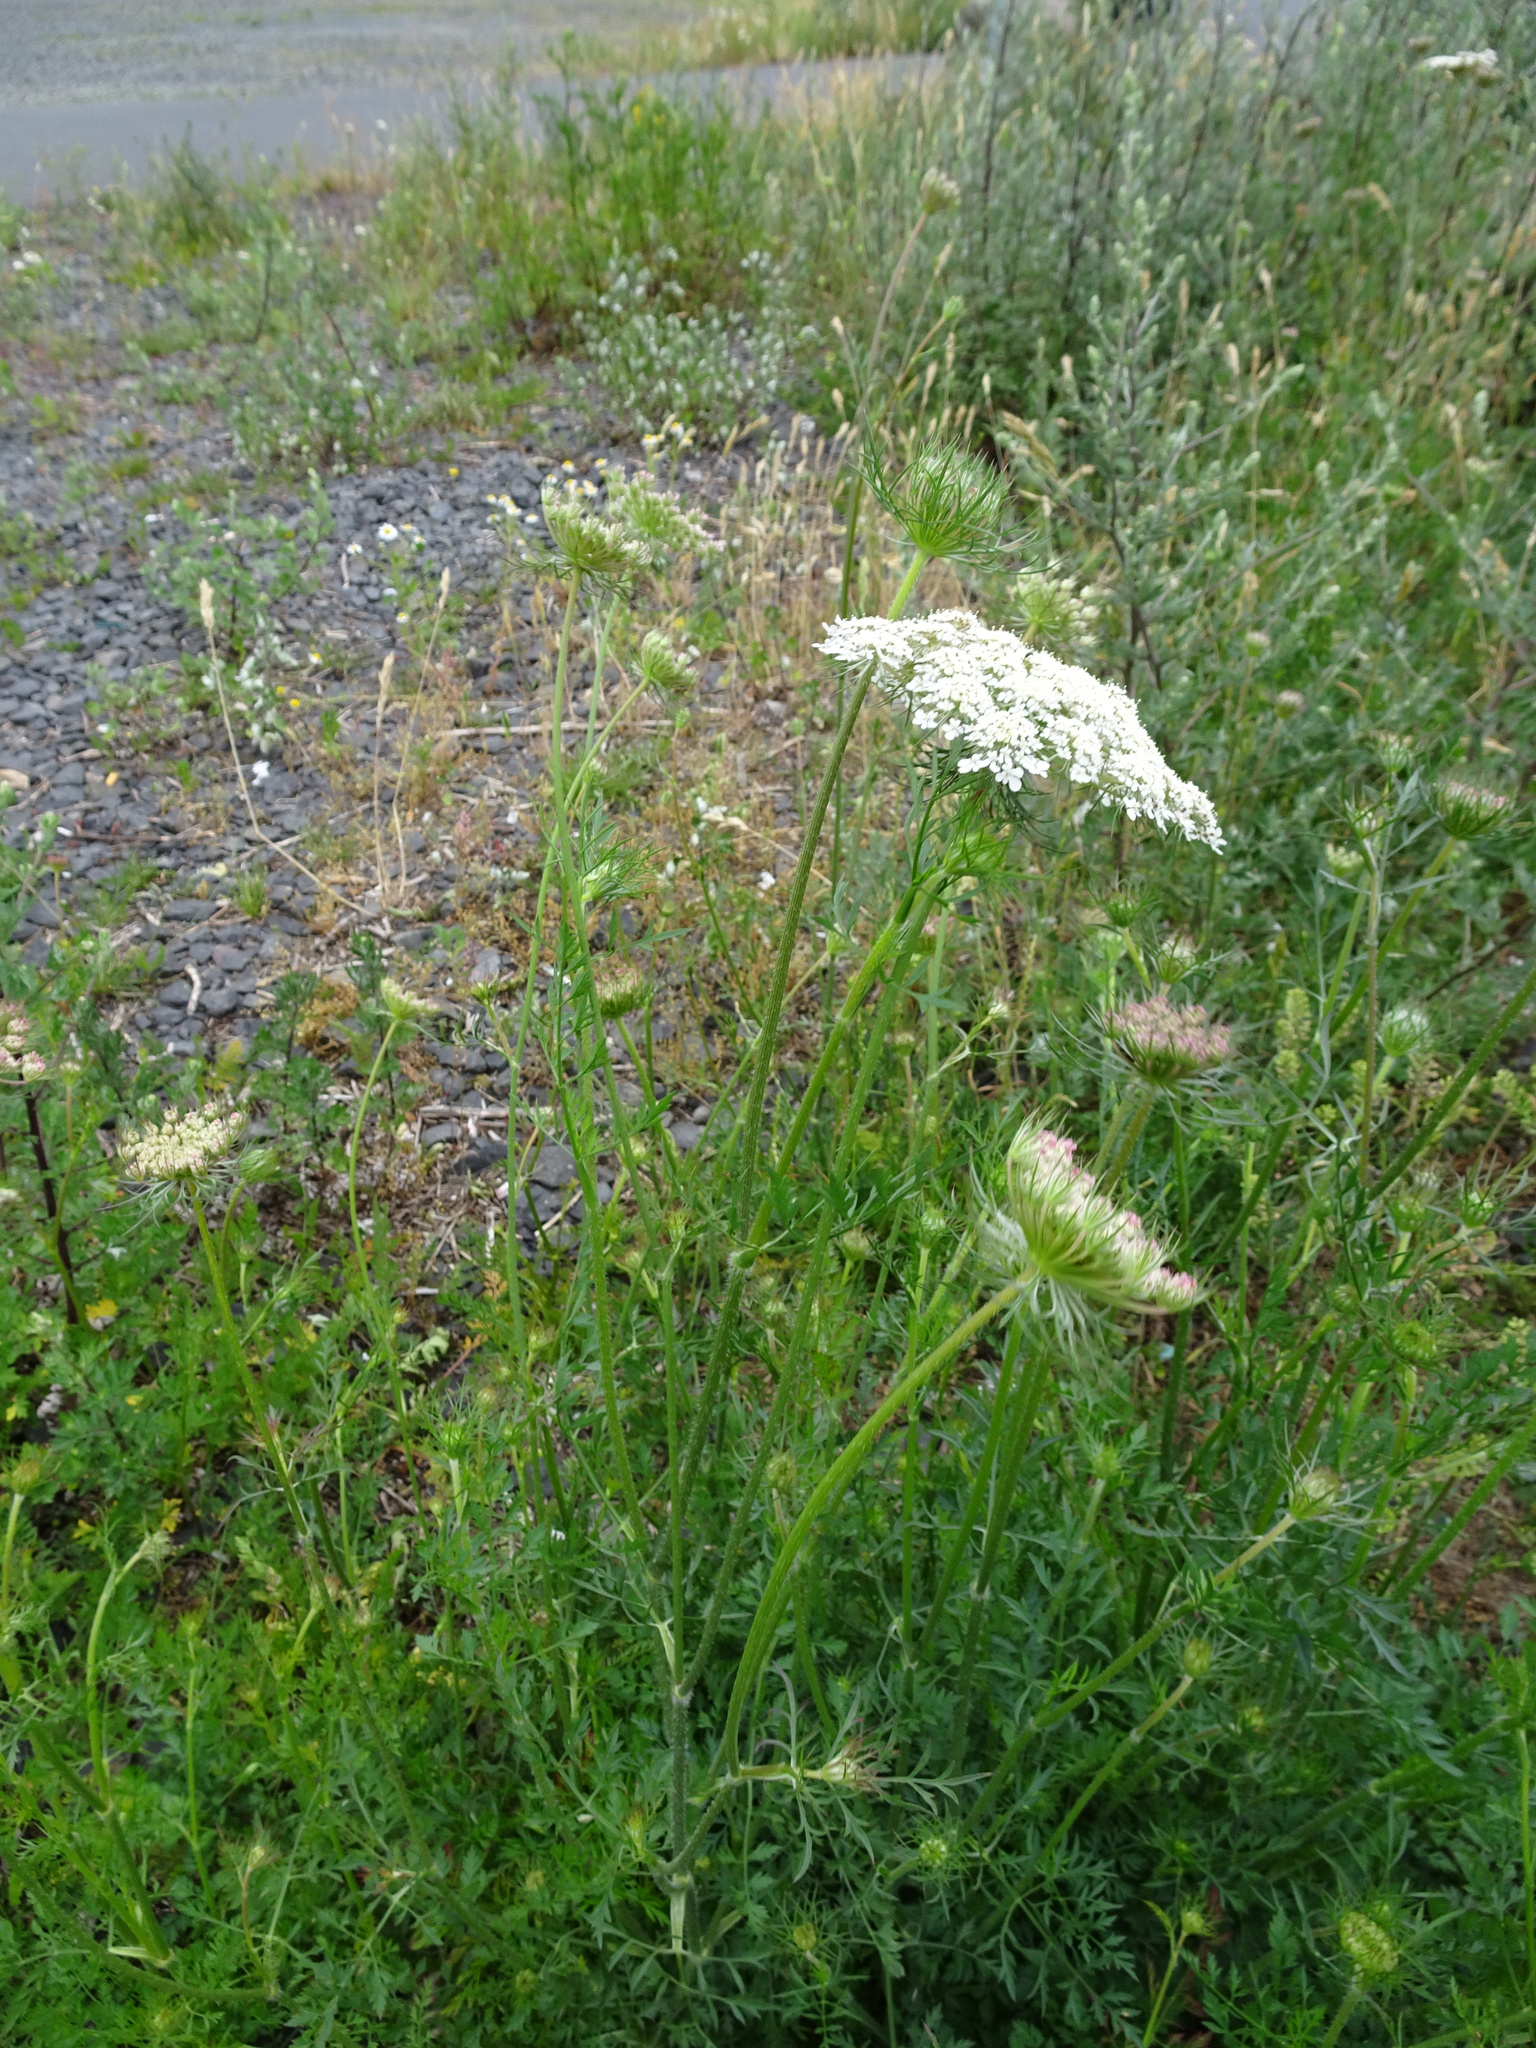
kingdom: Plantae
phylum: Tracheophyta
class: Magnoliopsida
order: Apiales
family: Apiaceae
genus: Daucus
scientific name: Daucus carota
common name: Wild carrot
